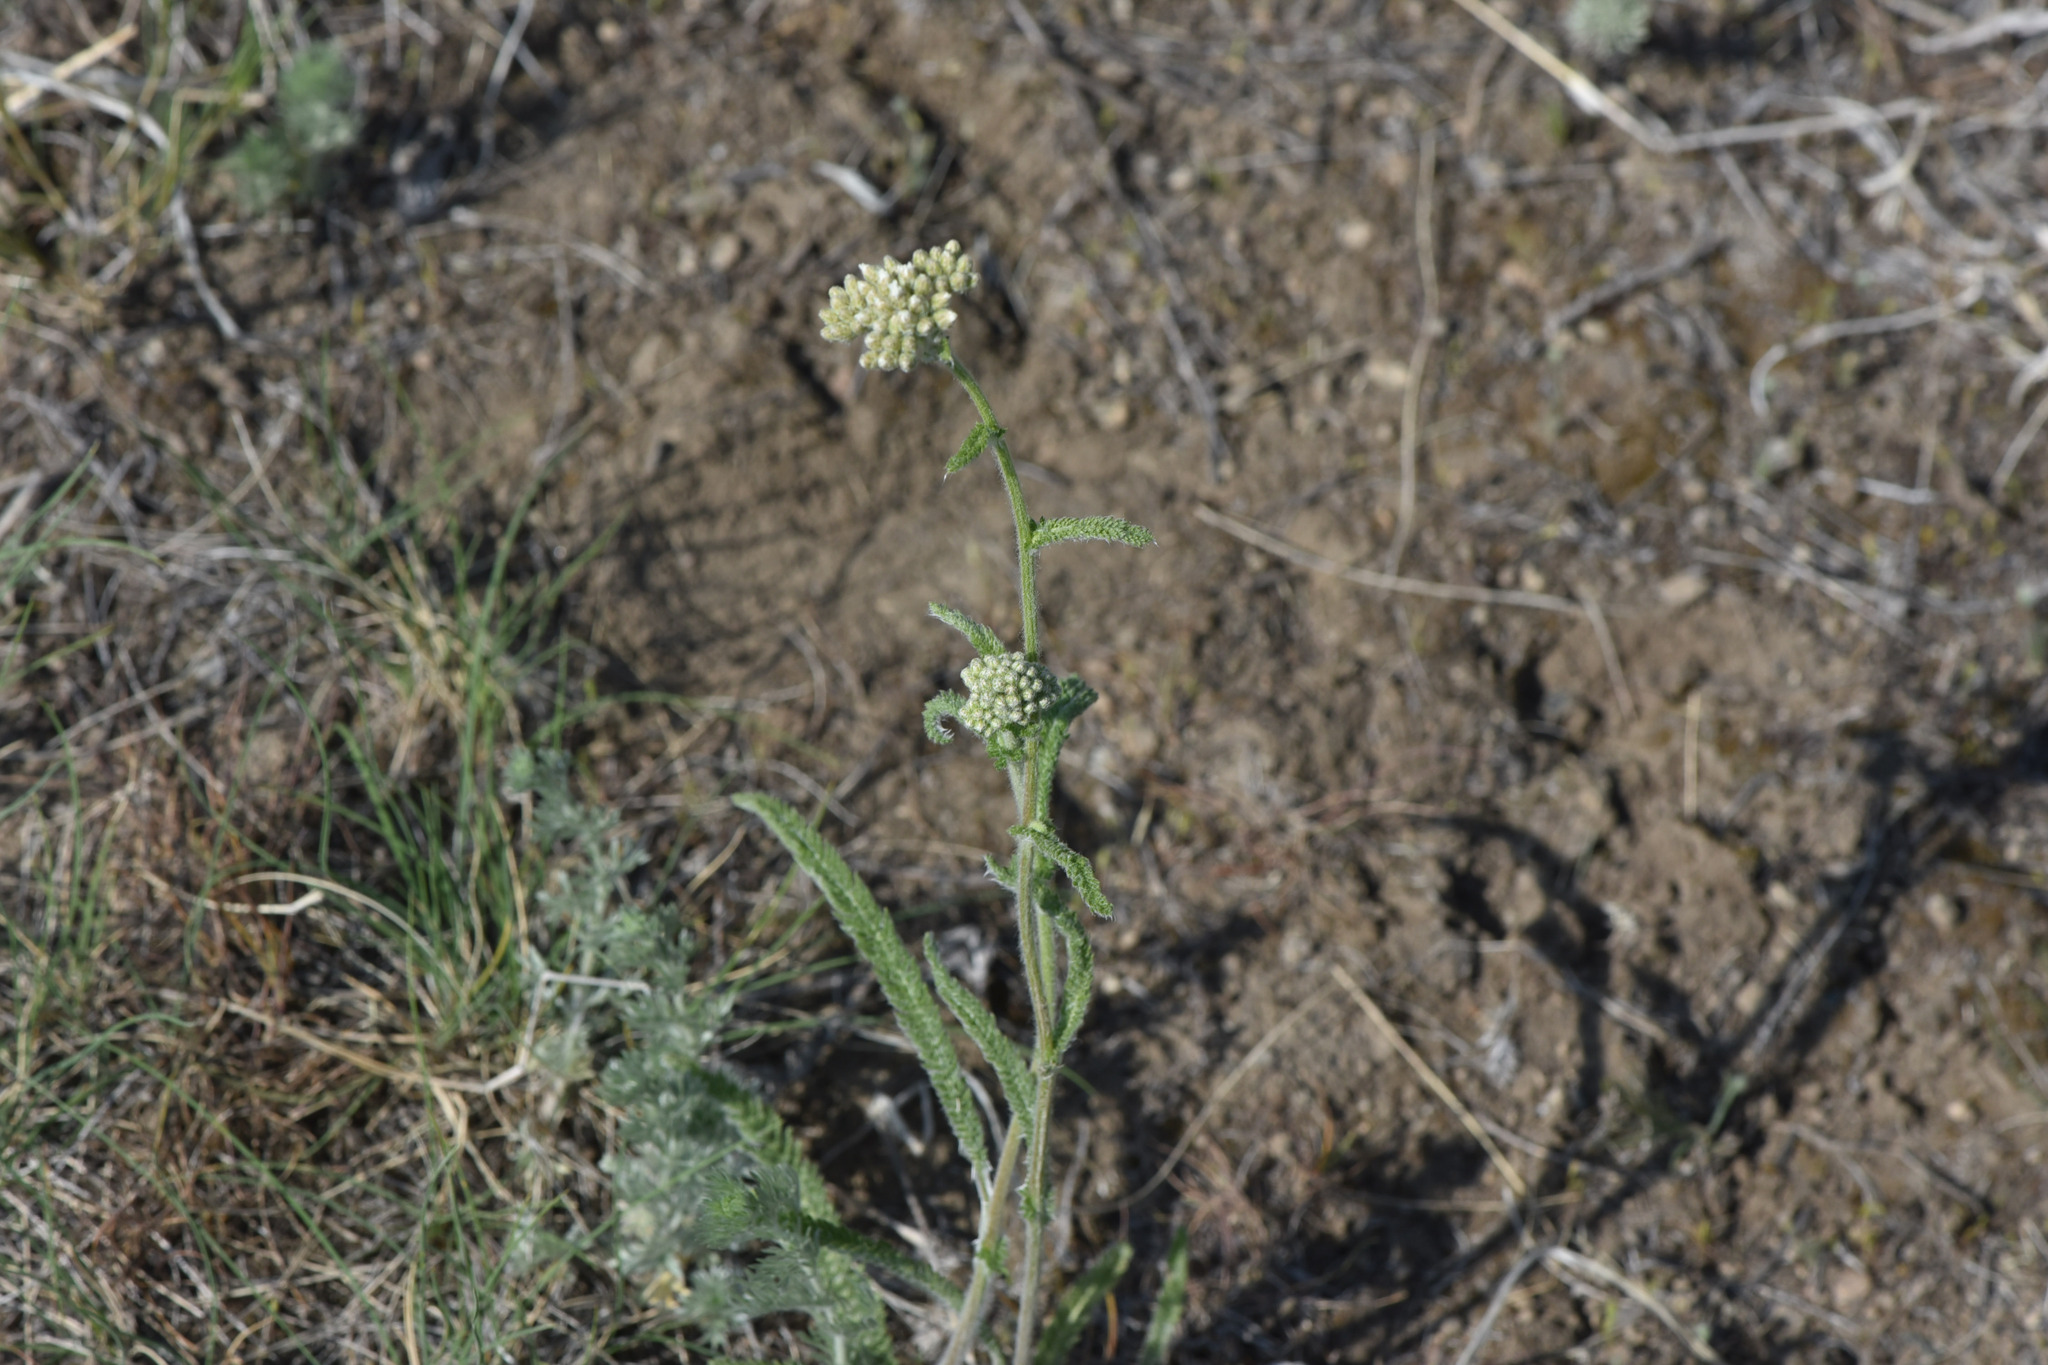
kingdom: Plantae
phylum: Tracheophyta
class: Magnoliopsida
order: Asterales
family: Asteraceae
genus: Achillea
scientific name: Achillea millefolium
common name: Yarrow
